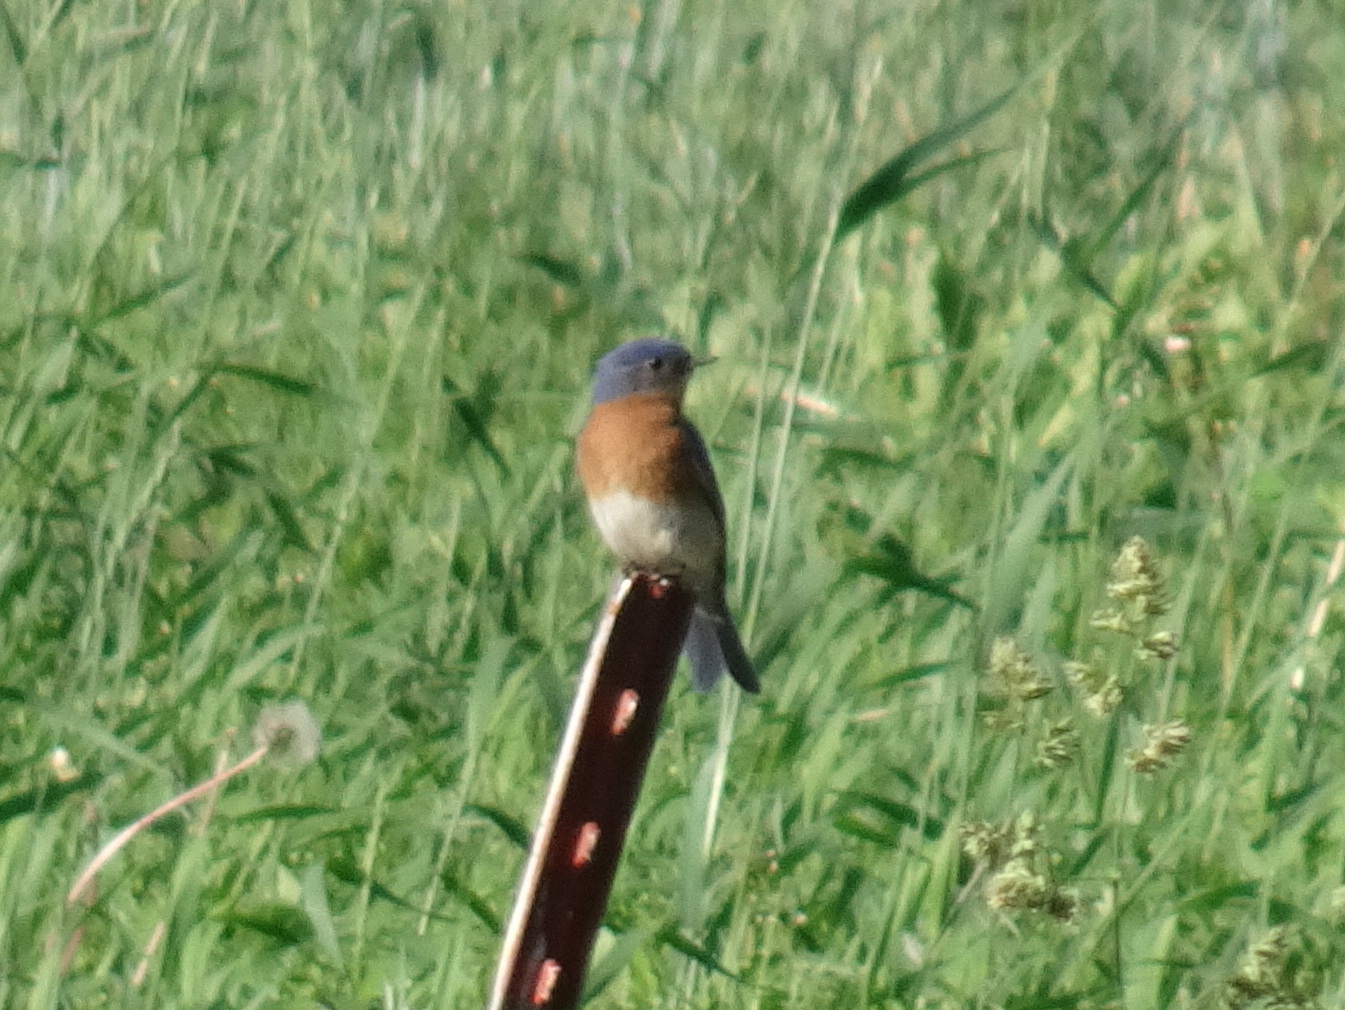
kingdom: Animalia
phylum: Chordata
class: Aves
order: Passeriformes
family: Turdidae
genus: Sialia
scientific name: Sialia sialis
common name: Eastern bluebird
